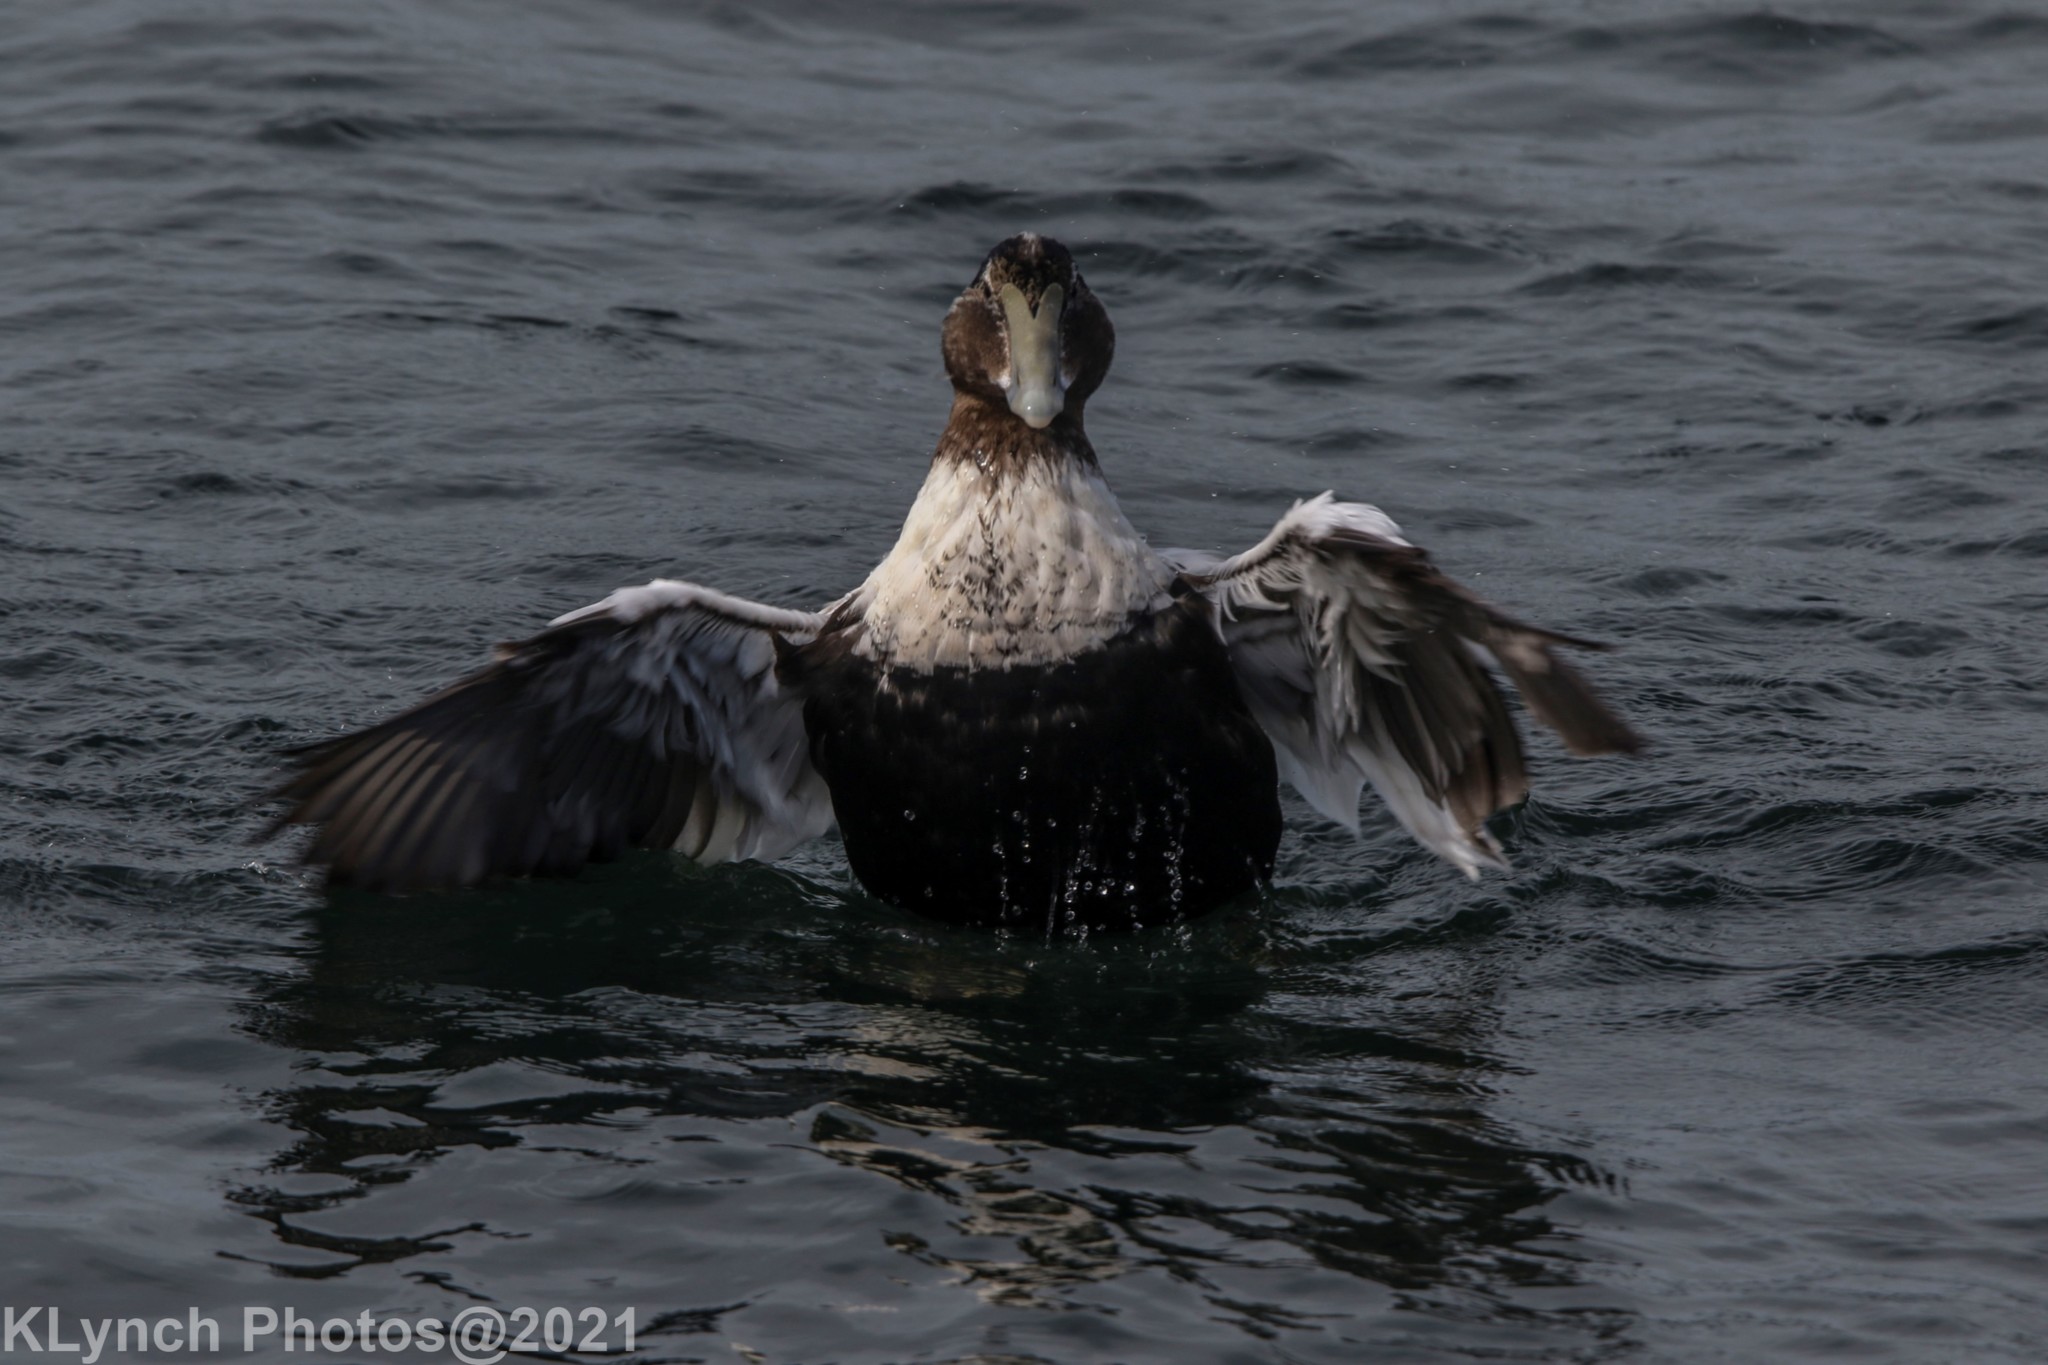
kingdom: Animalia
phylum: Chordata
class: Aves
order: Anseriformes
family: Anatidae
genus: Somateria
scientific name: Somateria mollissima
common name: Common eider
